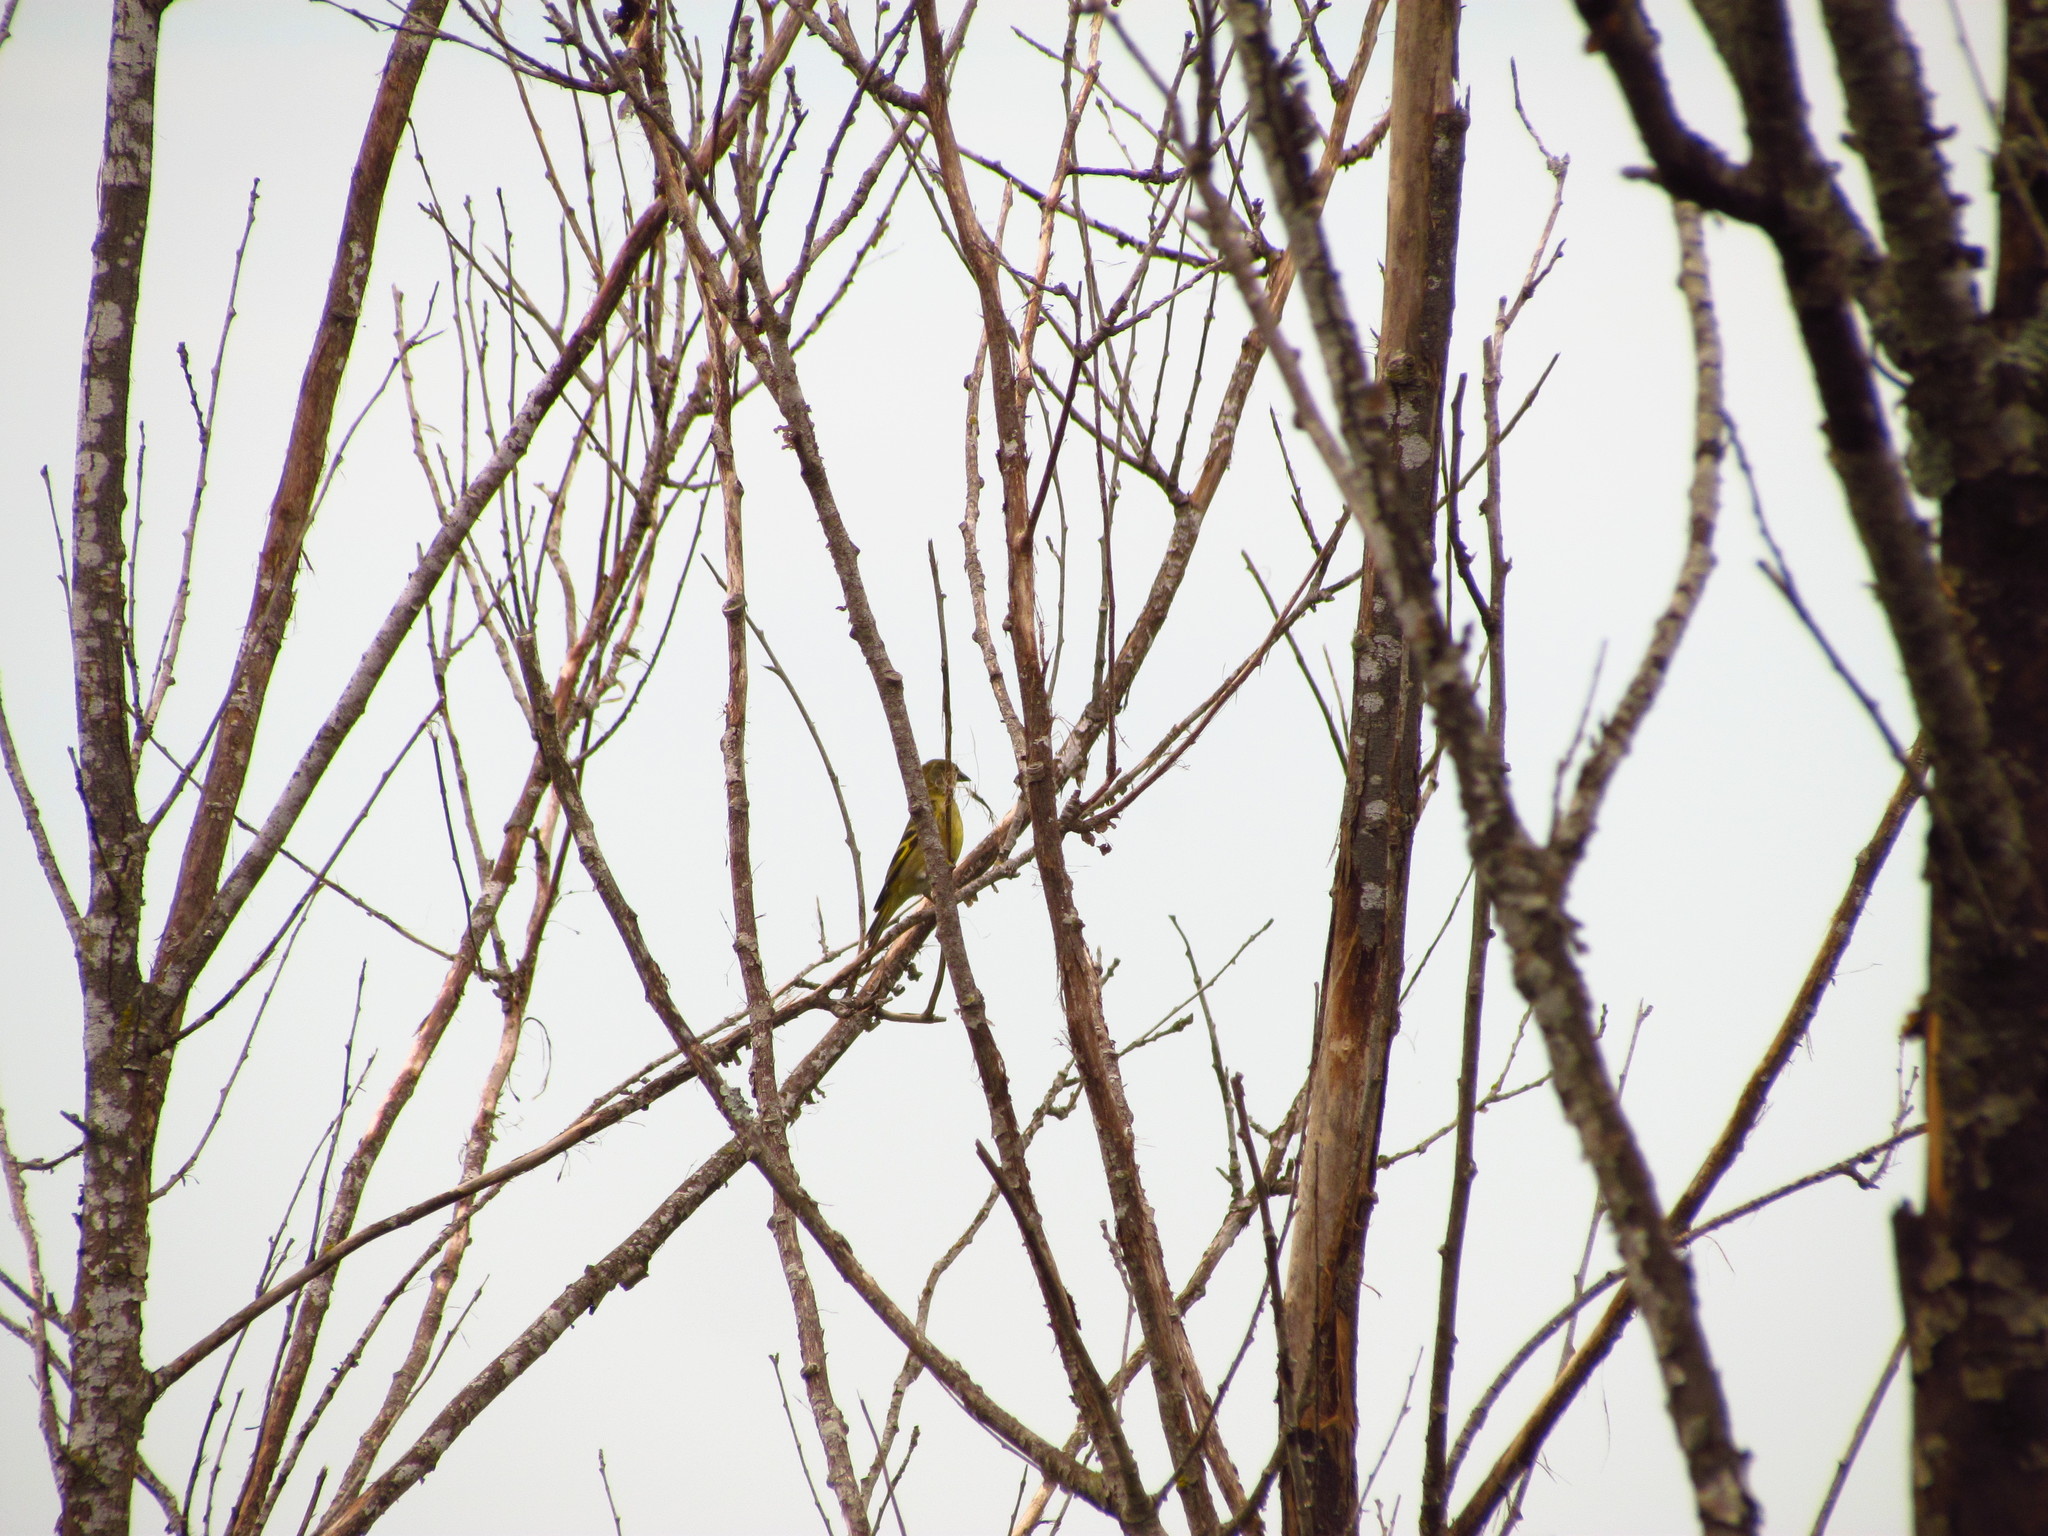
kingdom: Animalia
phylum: Chordata
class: Aves
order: Passeriformes
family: Fringillidae
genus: Spinus
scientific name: Spinus magellanicus
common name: Hooded siskin
